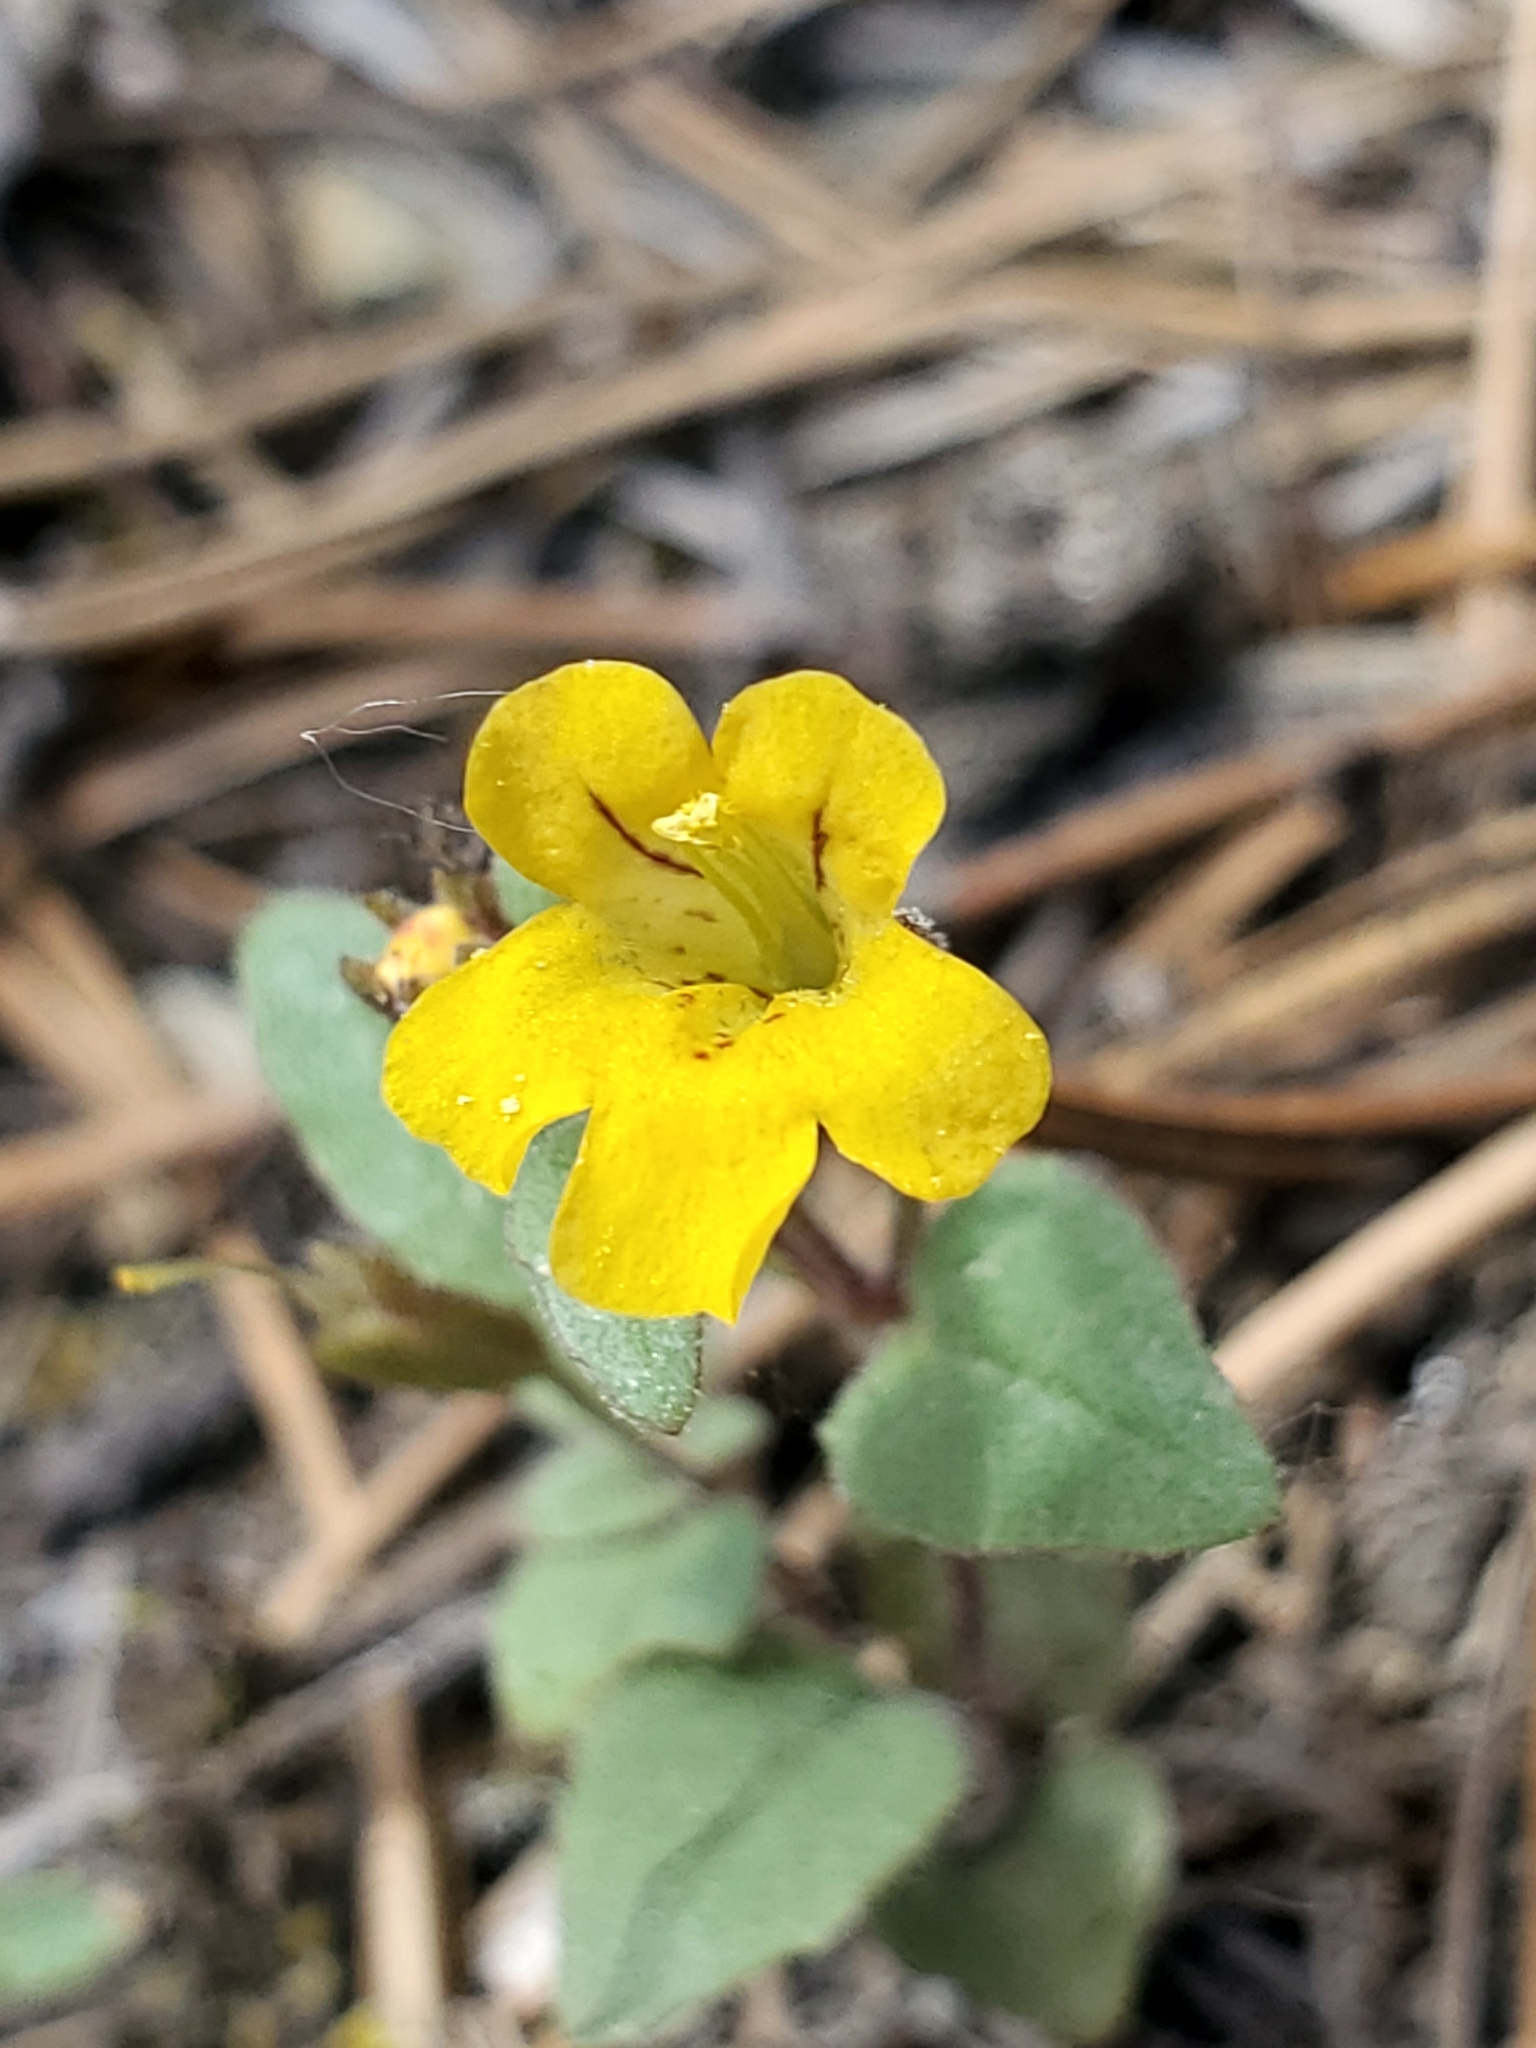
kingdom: Plantae
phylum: Tracheophyta
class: Magnoliopsida
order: Lamiales
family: Phrymaceae
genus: Erythranthe
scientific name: Erythranthe alsinoides
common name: Chickweed monkeyflower
